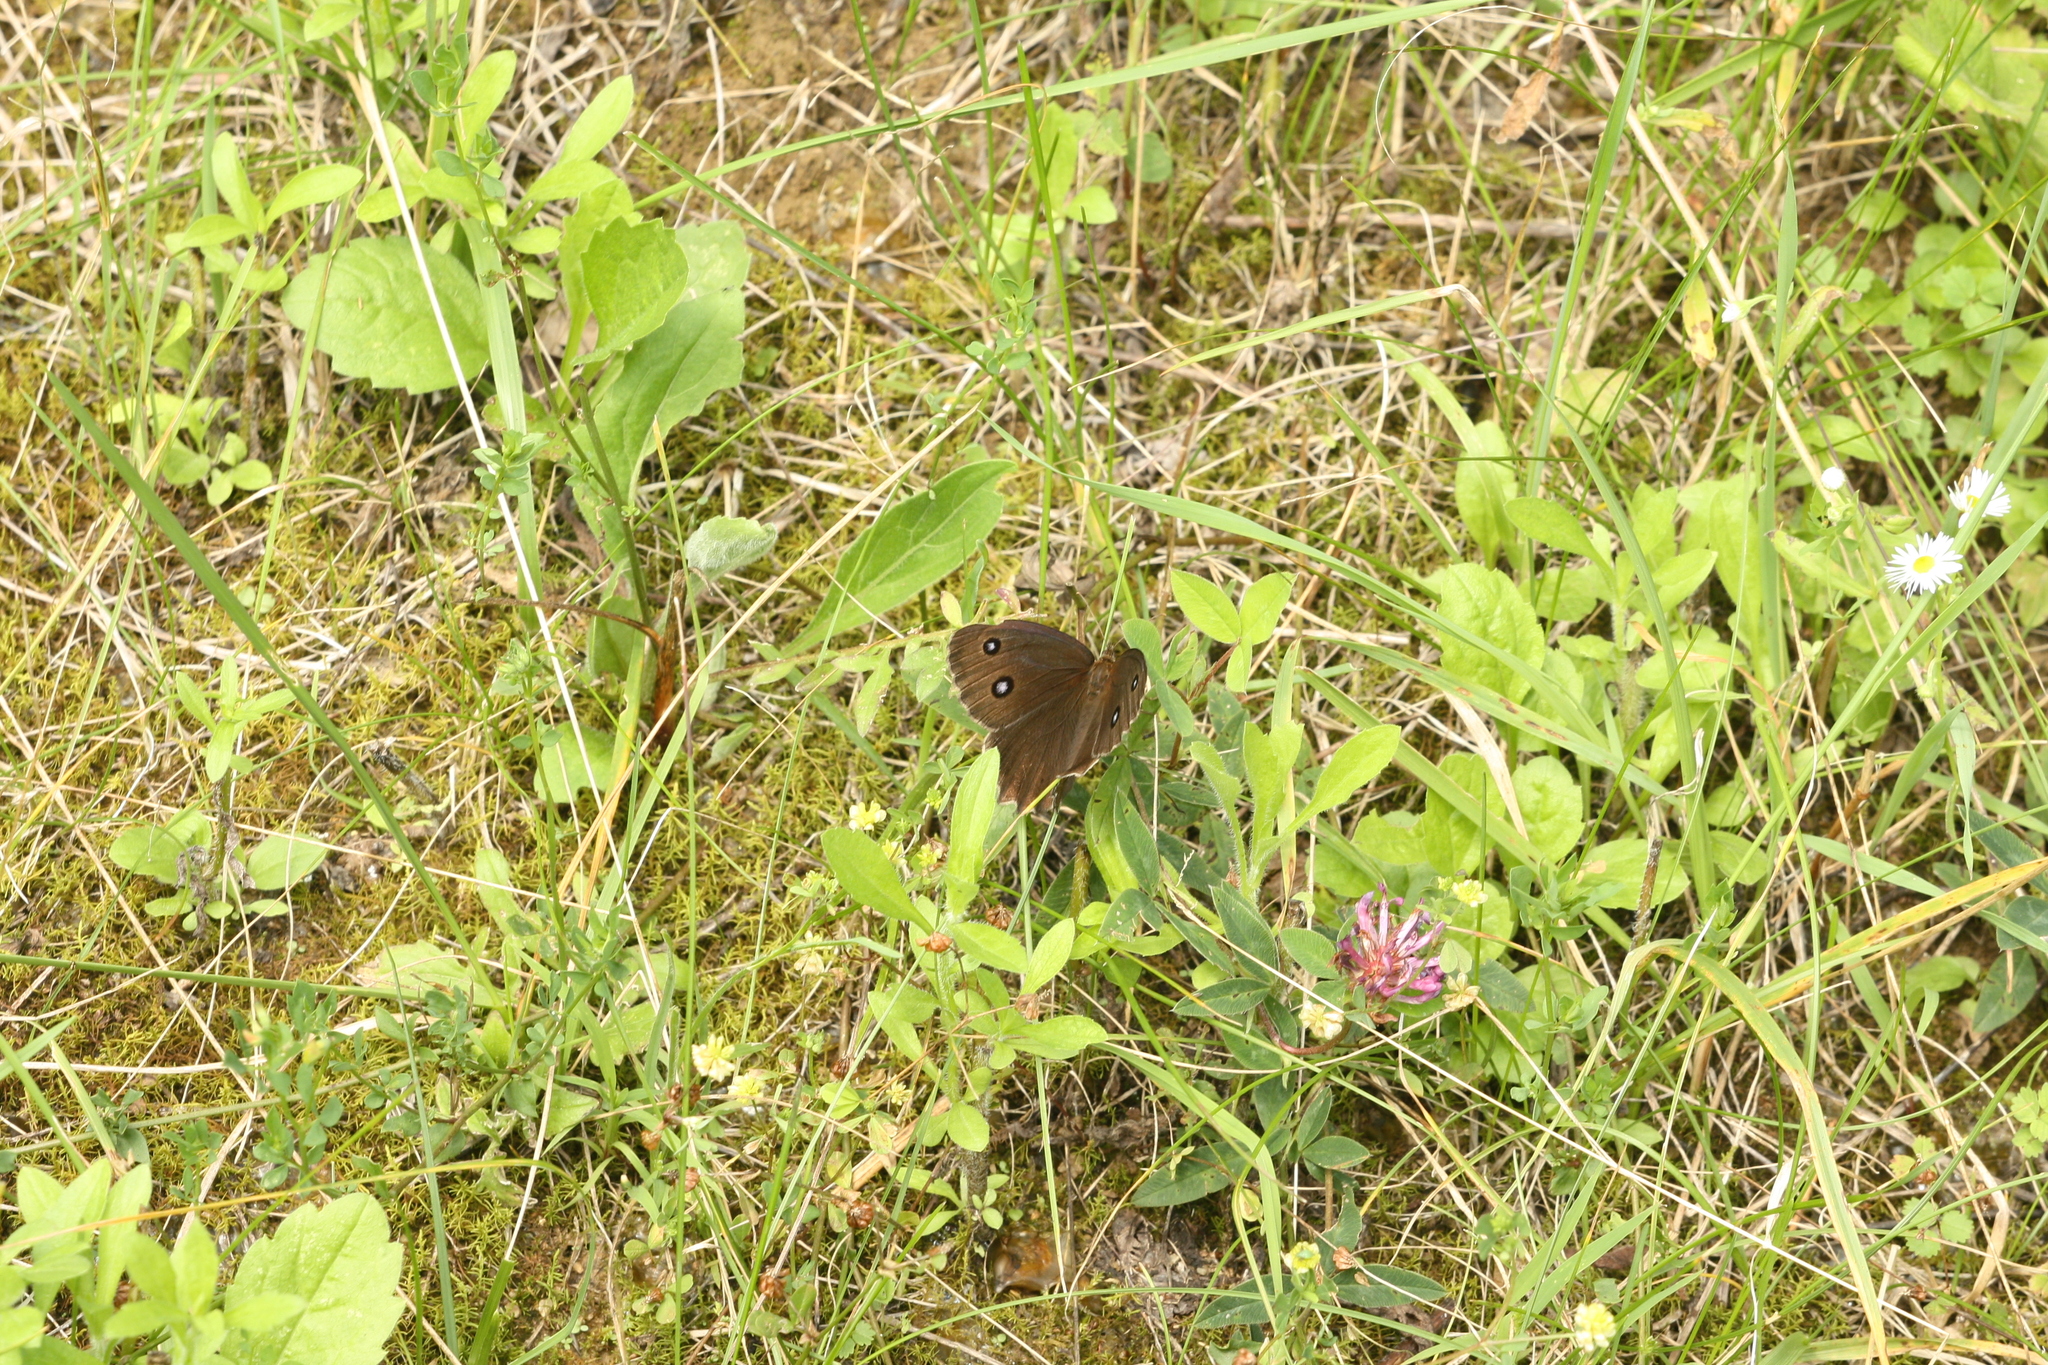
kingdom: Animalia
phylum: Arthropoda
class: Insecta
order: Lepidoptera
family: Nymphalidae
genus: Minois
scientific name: Minois dryas
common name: Dryad
